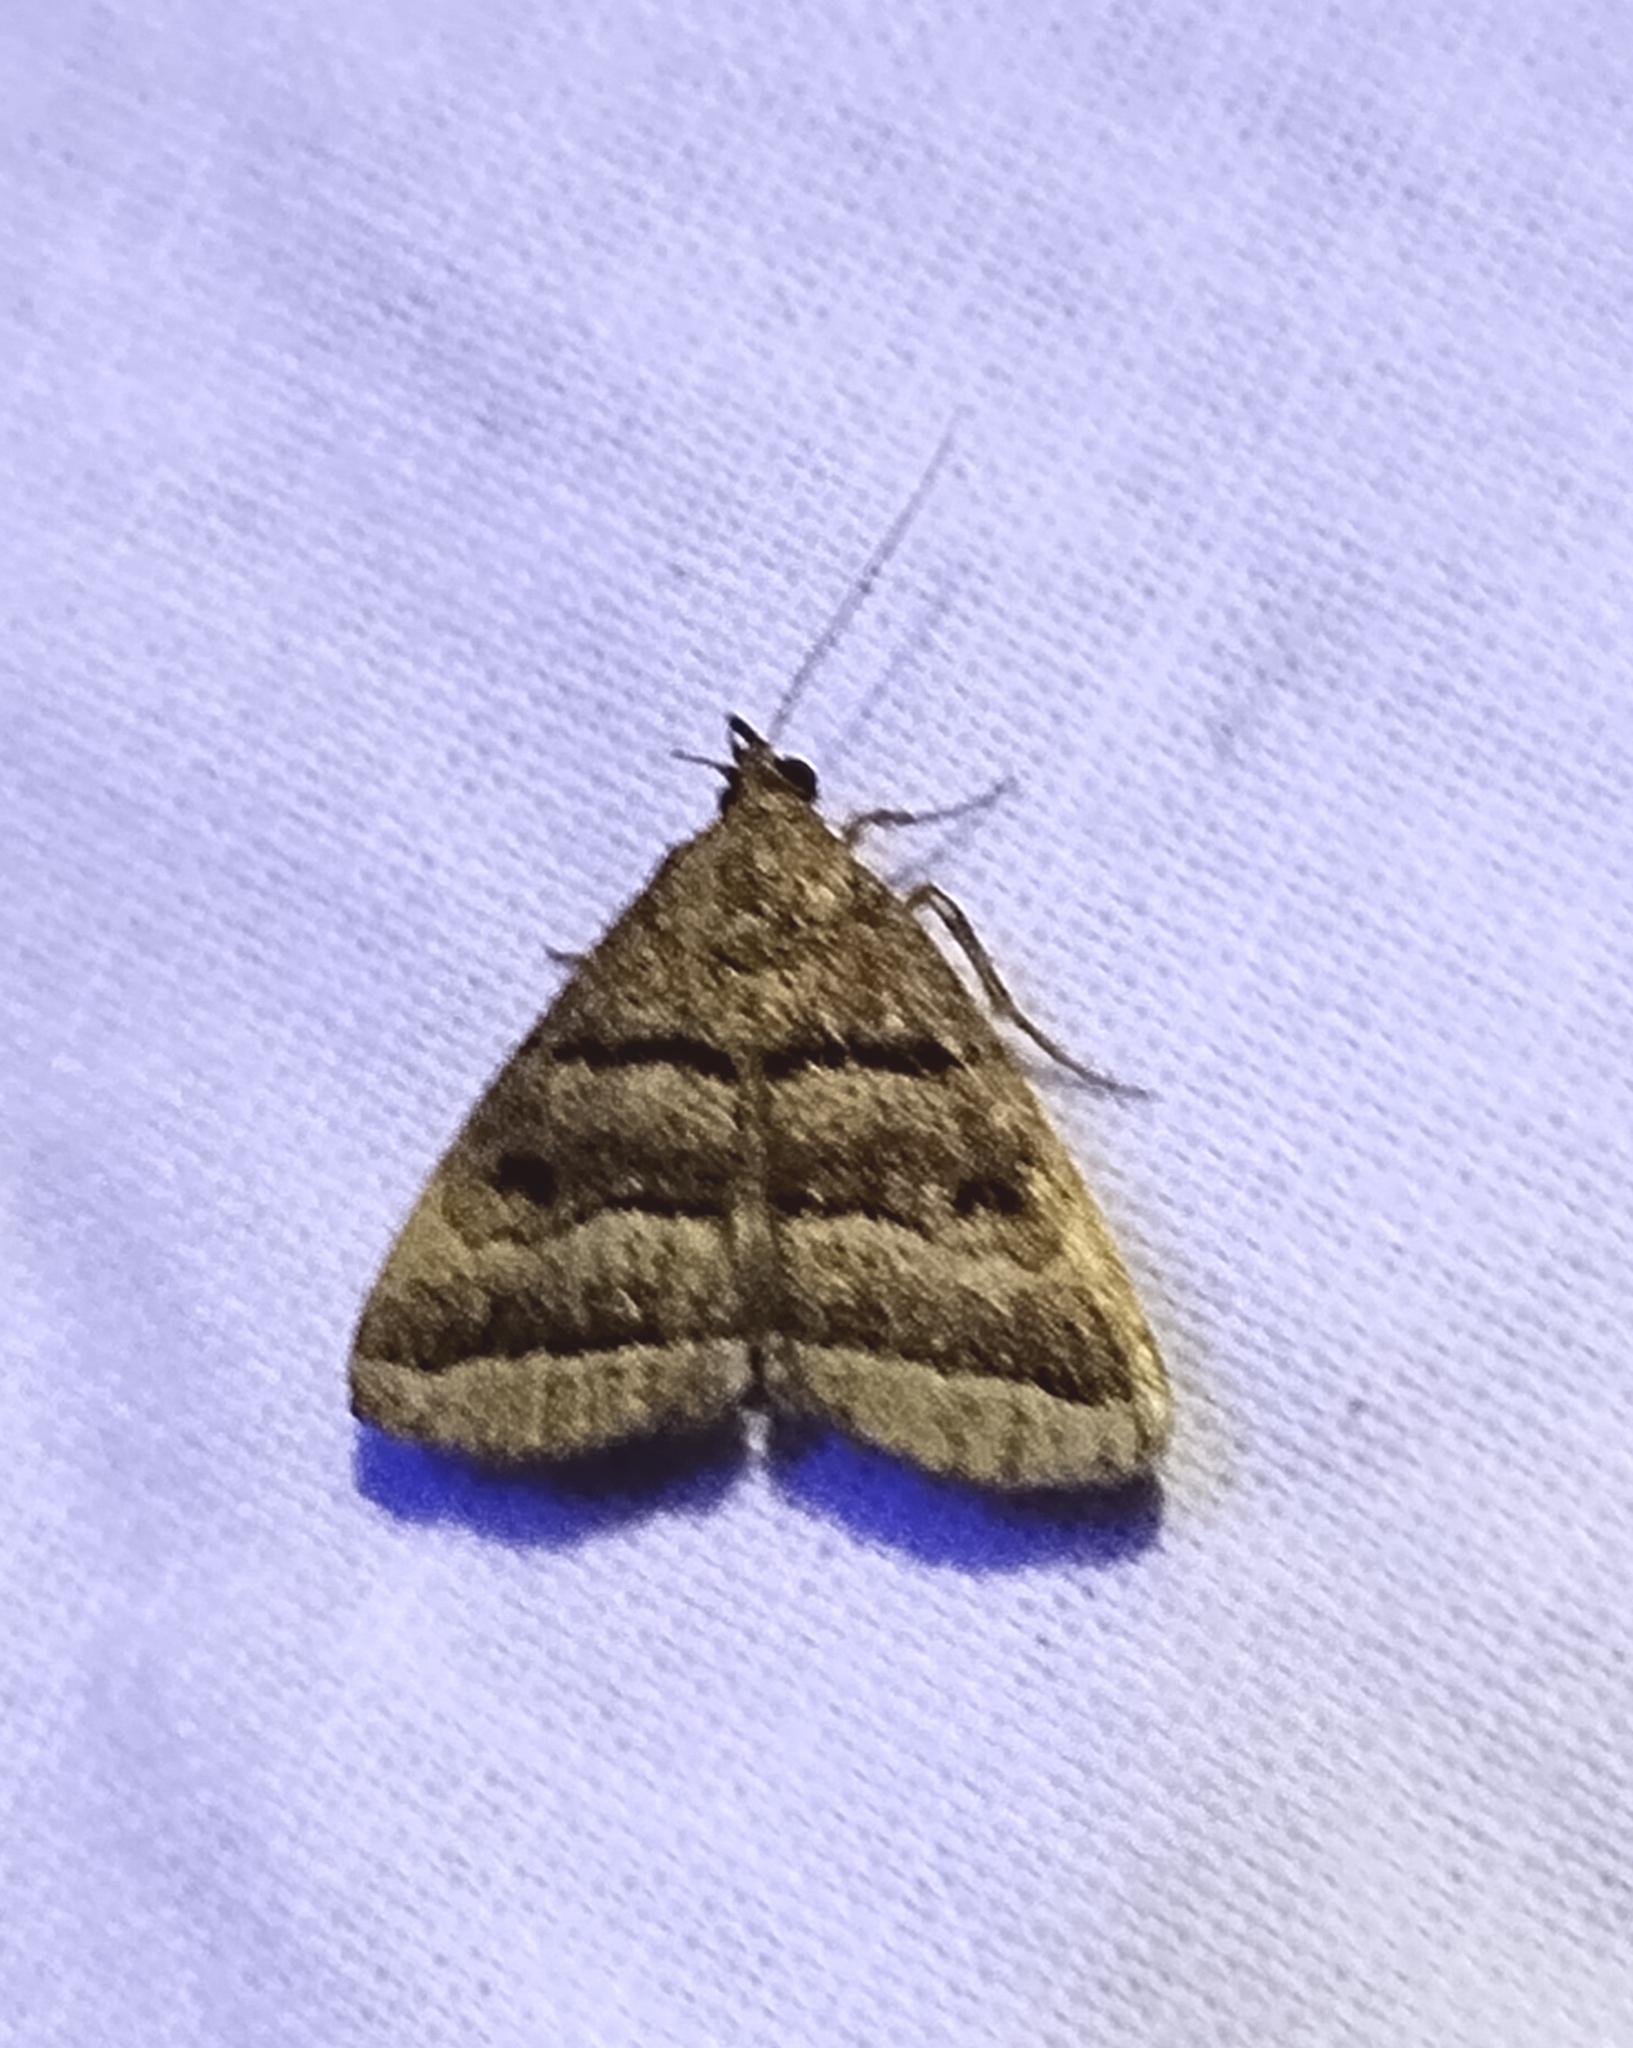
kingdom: Animalia
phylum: Arthropoda
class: Insecta
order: Lepidoptera
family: Erebidae
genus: Zanclognatha
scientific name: Zanclognatha atrilineella
